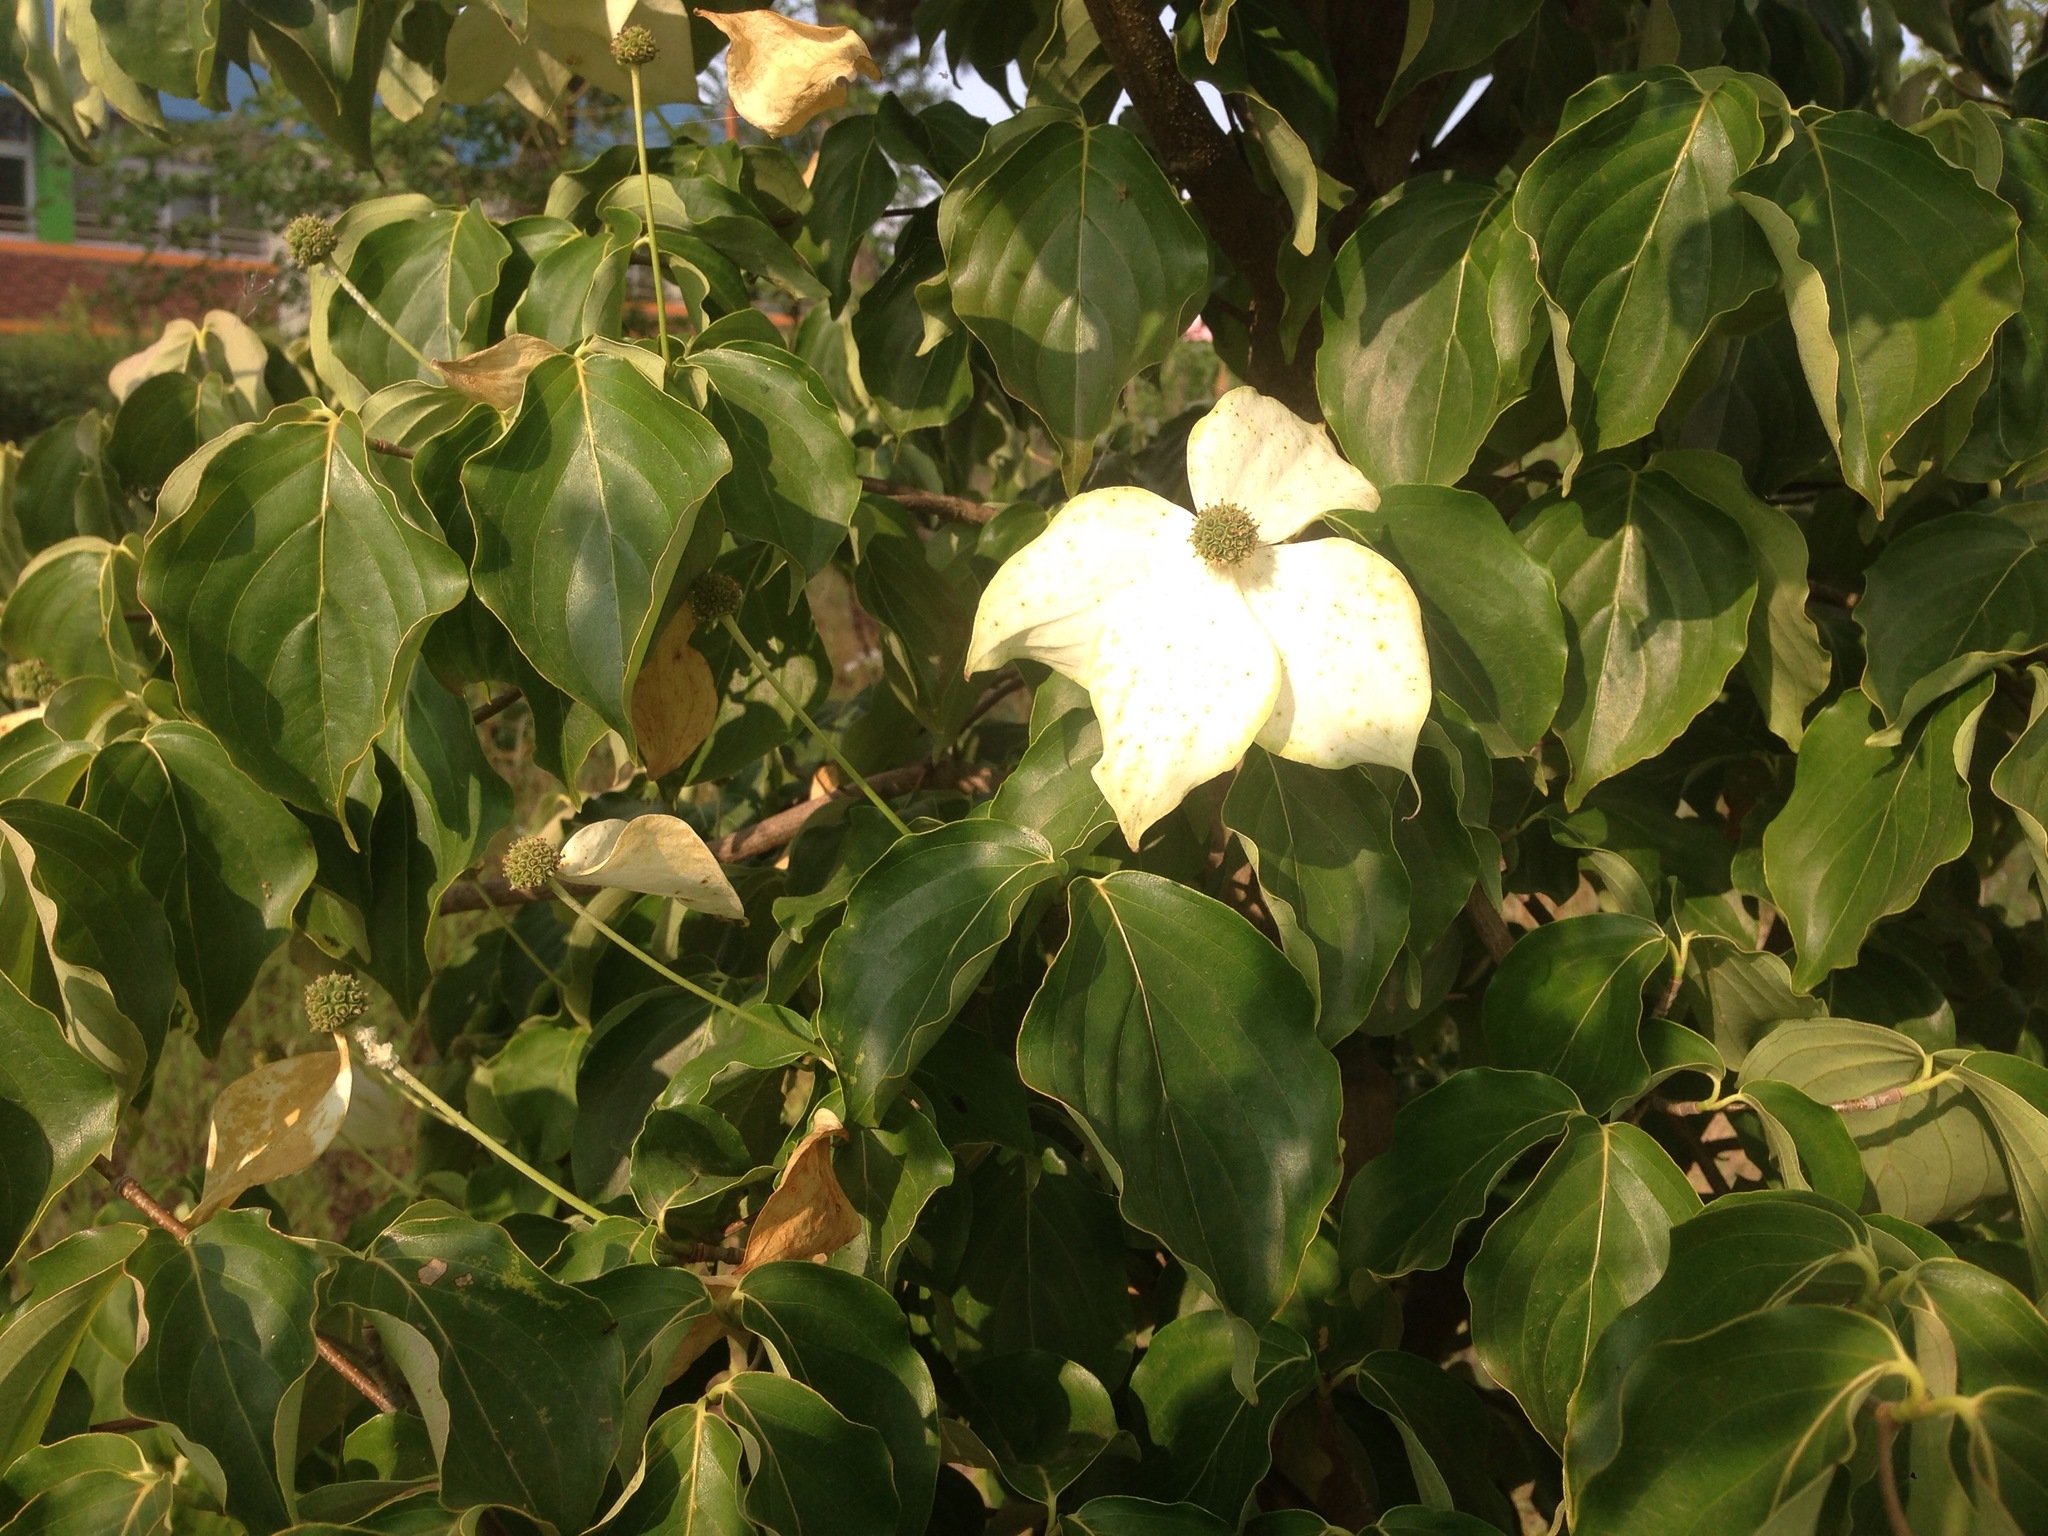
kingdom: Plantae
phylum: Tracheophyta
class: Magnoliopsida
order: Cornales
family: Cornaceae
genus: Cornus
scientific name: Cornus kousa
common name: Japanese dogwood
